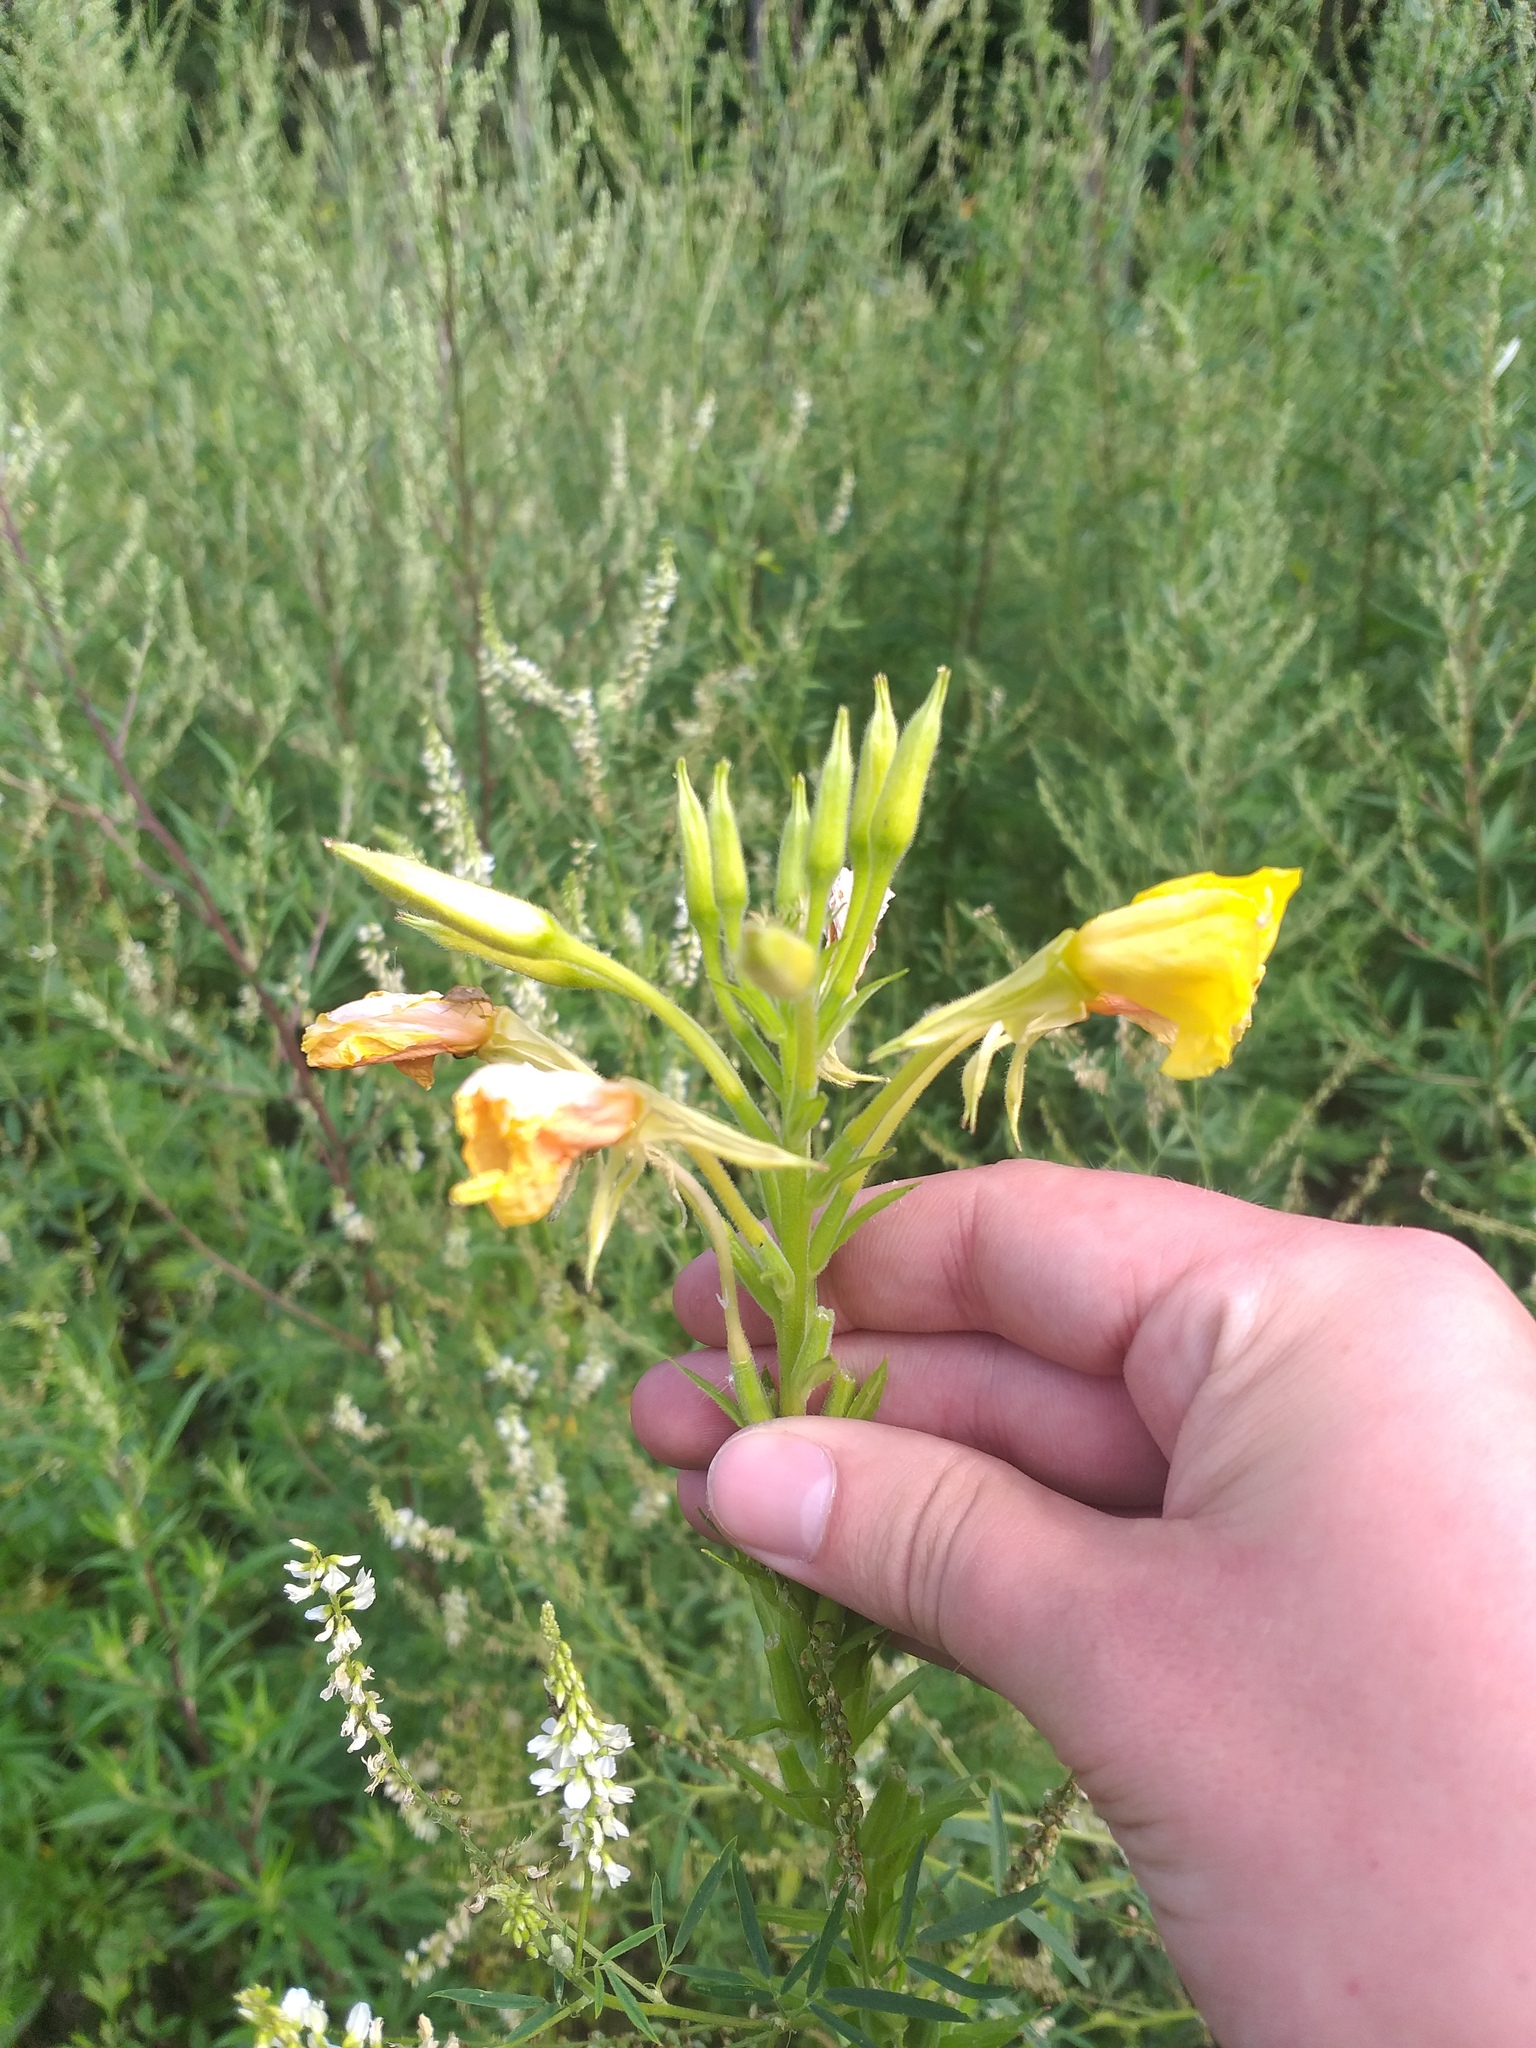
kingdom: Plantae
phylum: Tracheophyta
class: Magnoliopsida
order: Myrtales
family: Onagraceae
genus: Oenothera
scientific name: Oenothera biennis
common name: Common evening-primrose
